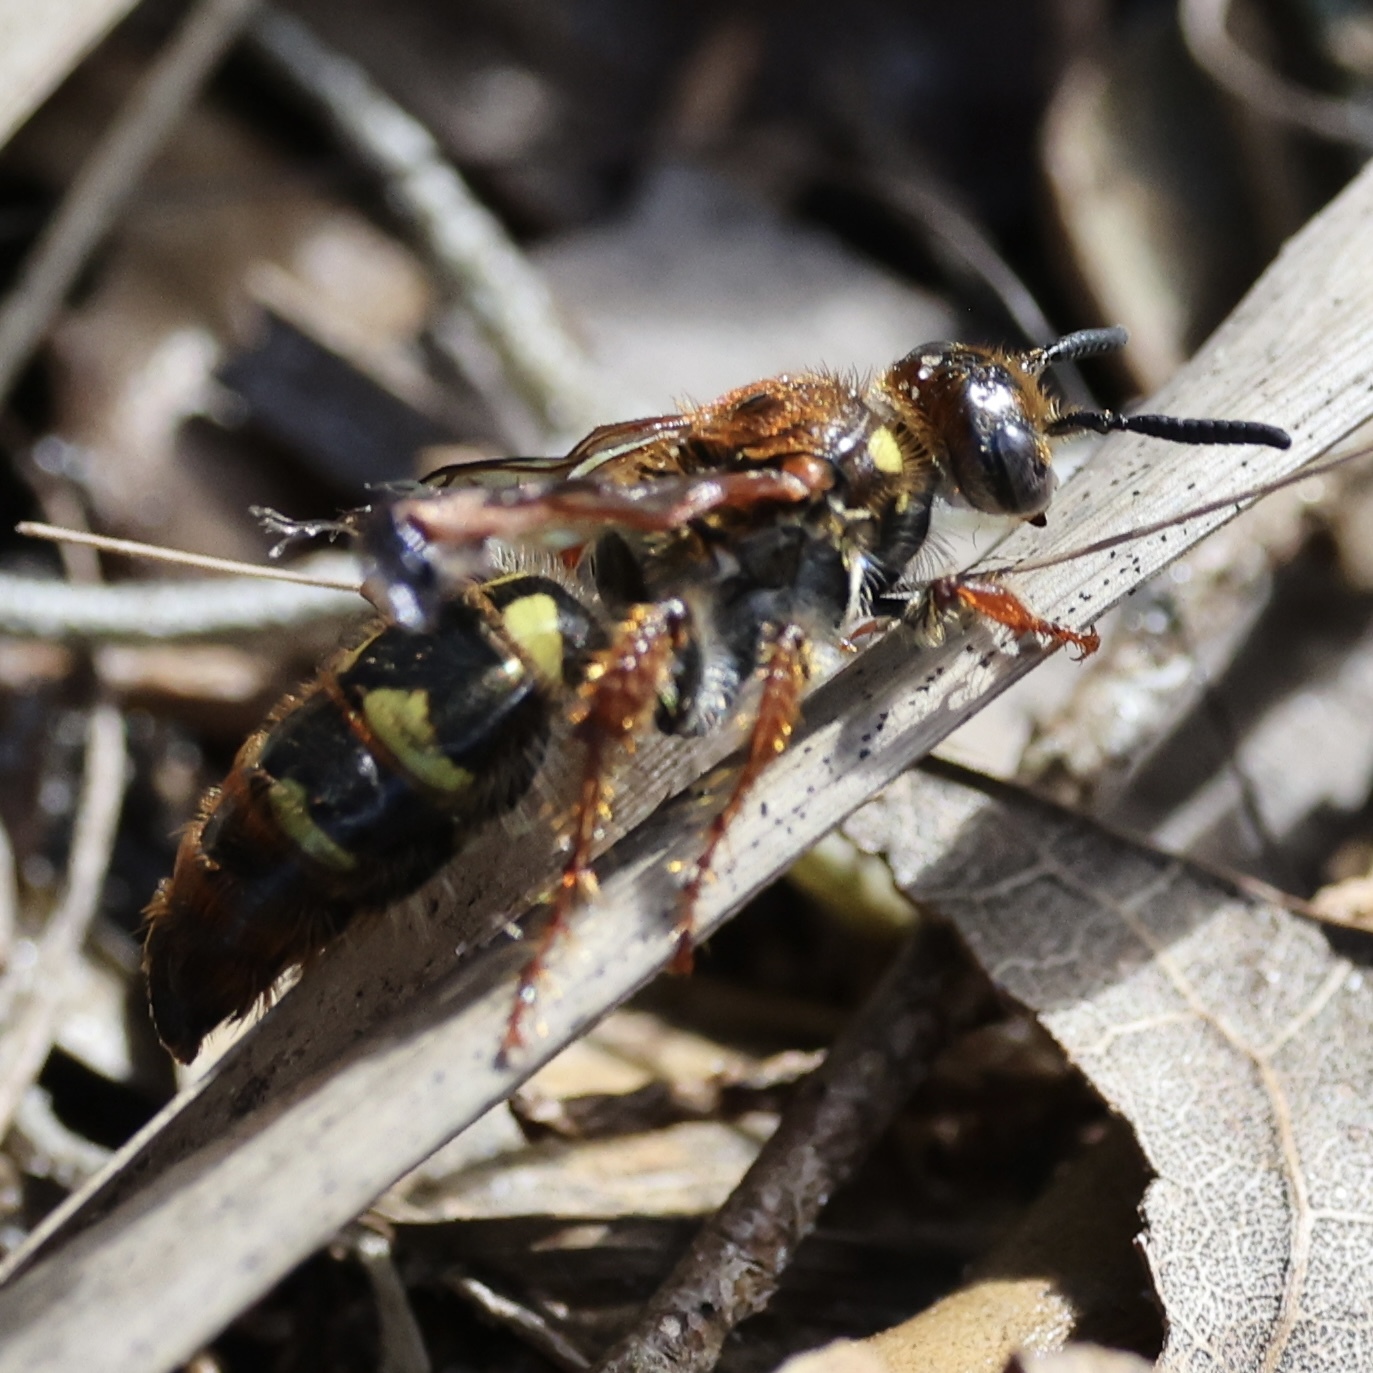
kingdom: Animalia
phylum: Arthropoda
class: Insecta
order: Hymenoptera
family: Scoliidae
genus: Xanthocampsomeris
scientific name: Xanthocampsomeris
